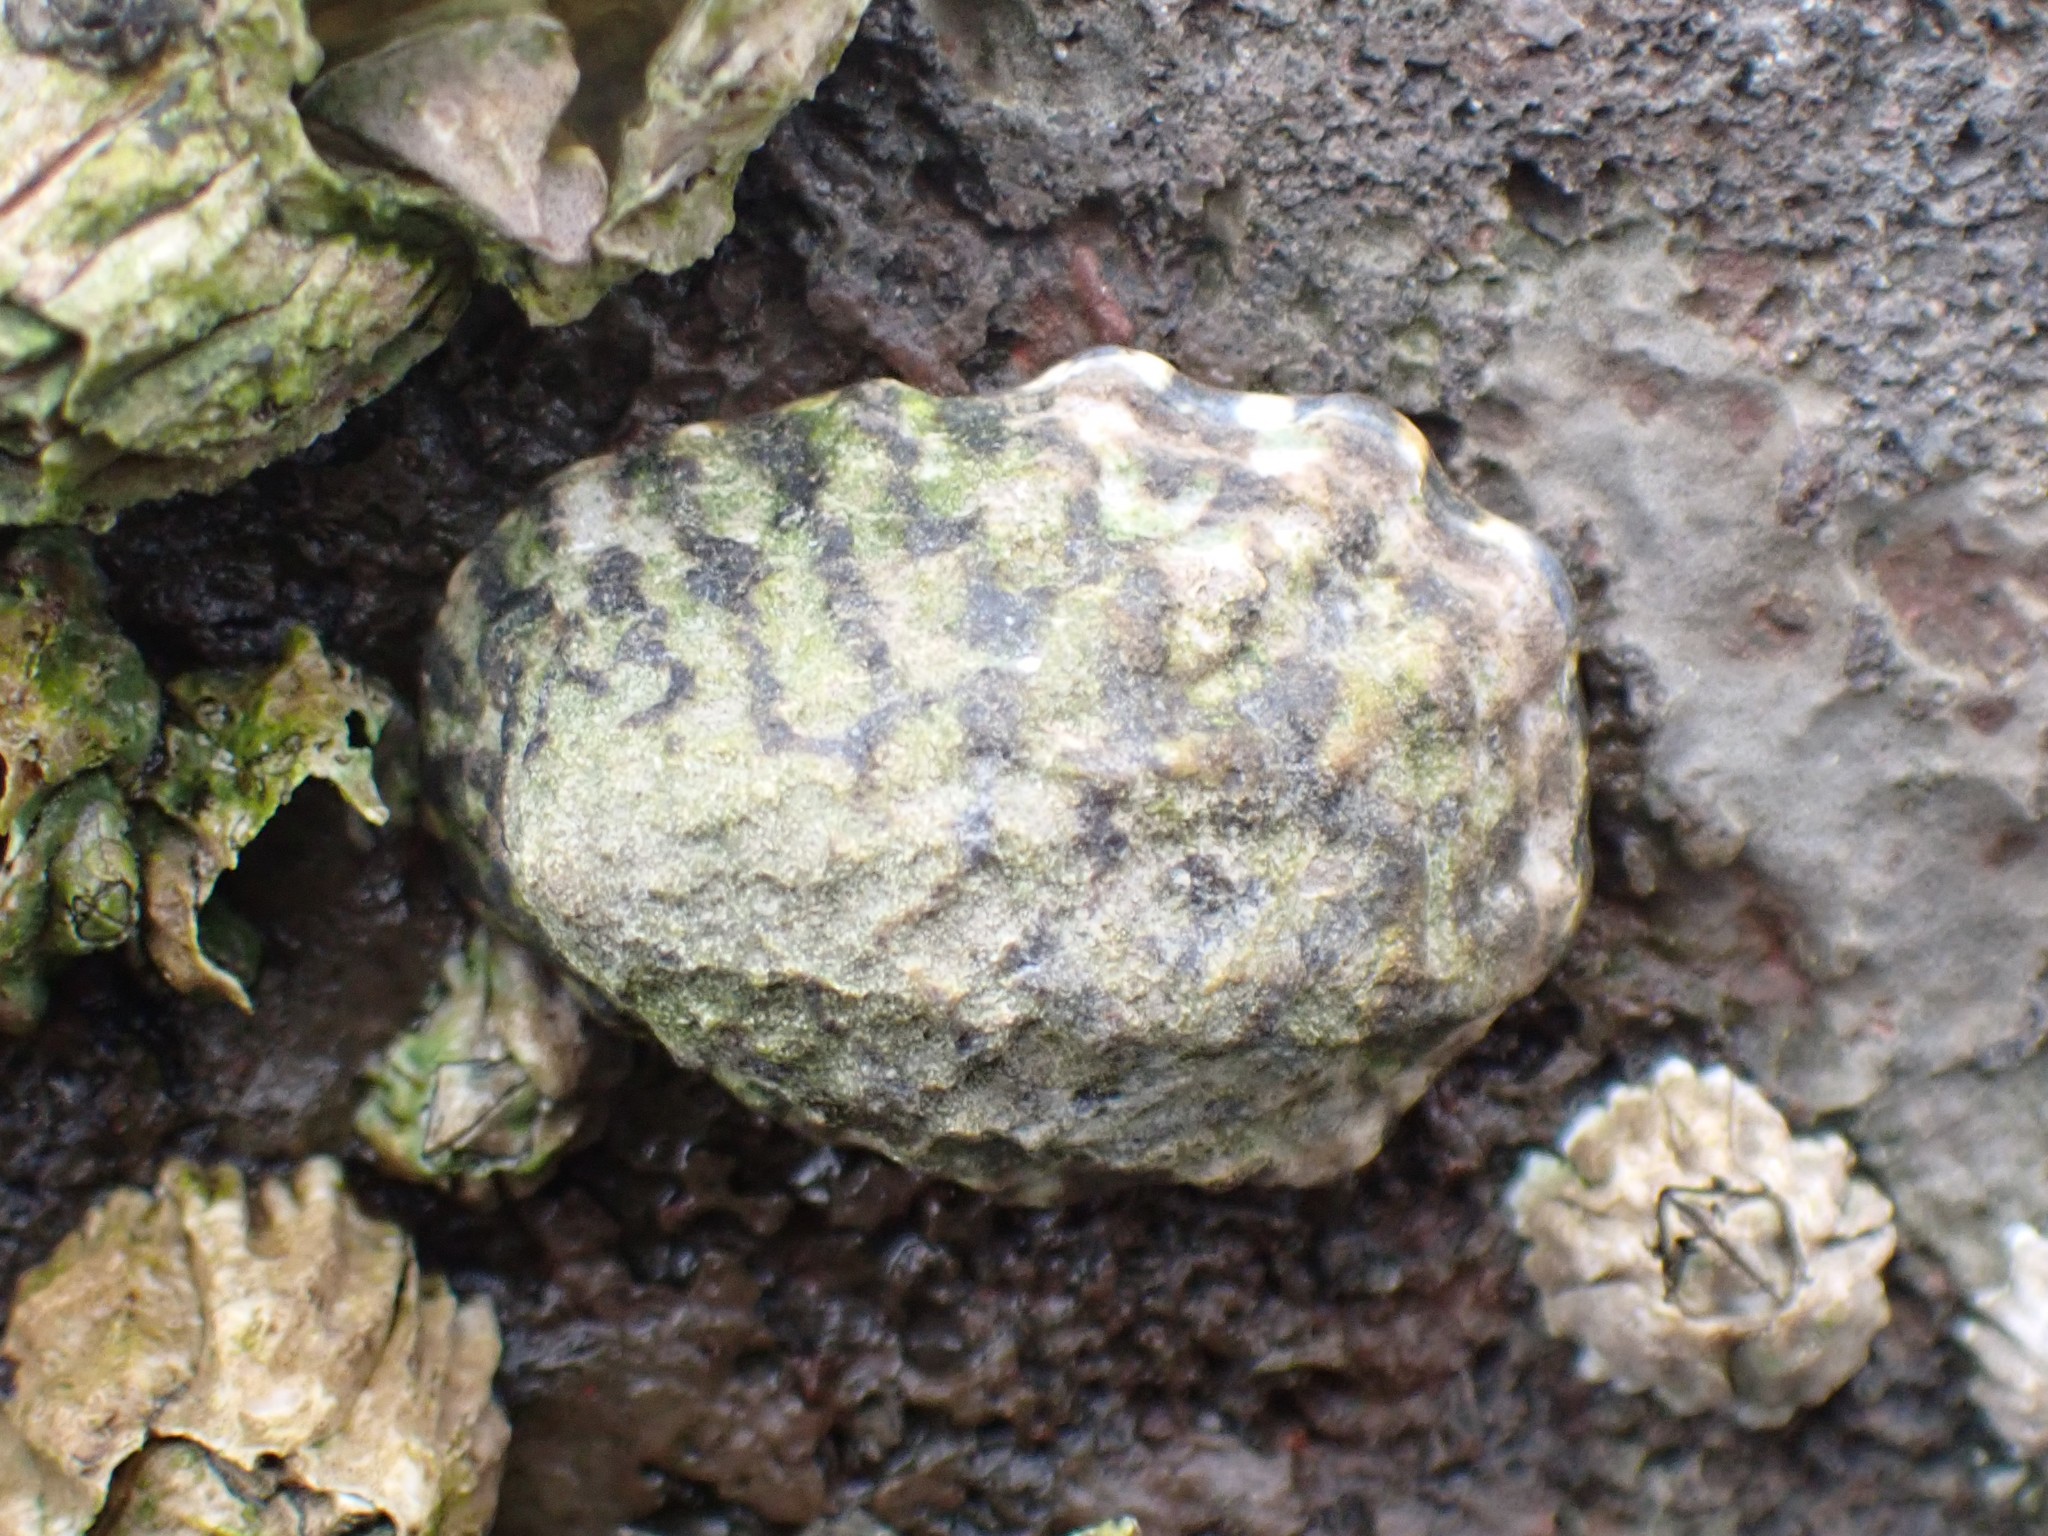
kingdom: Animalia
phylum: Mollusca
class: Gastropoda
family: Lottiidae
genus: Lottia
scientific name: Lottia digitalis
